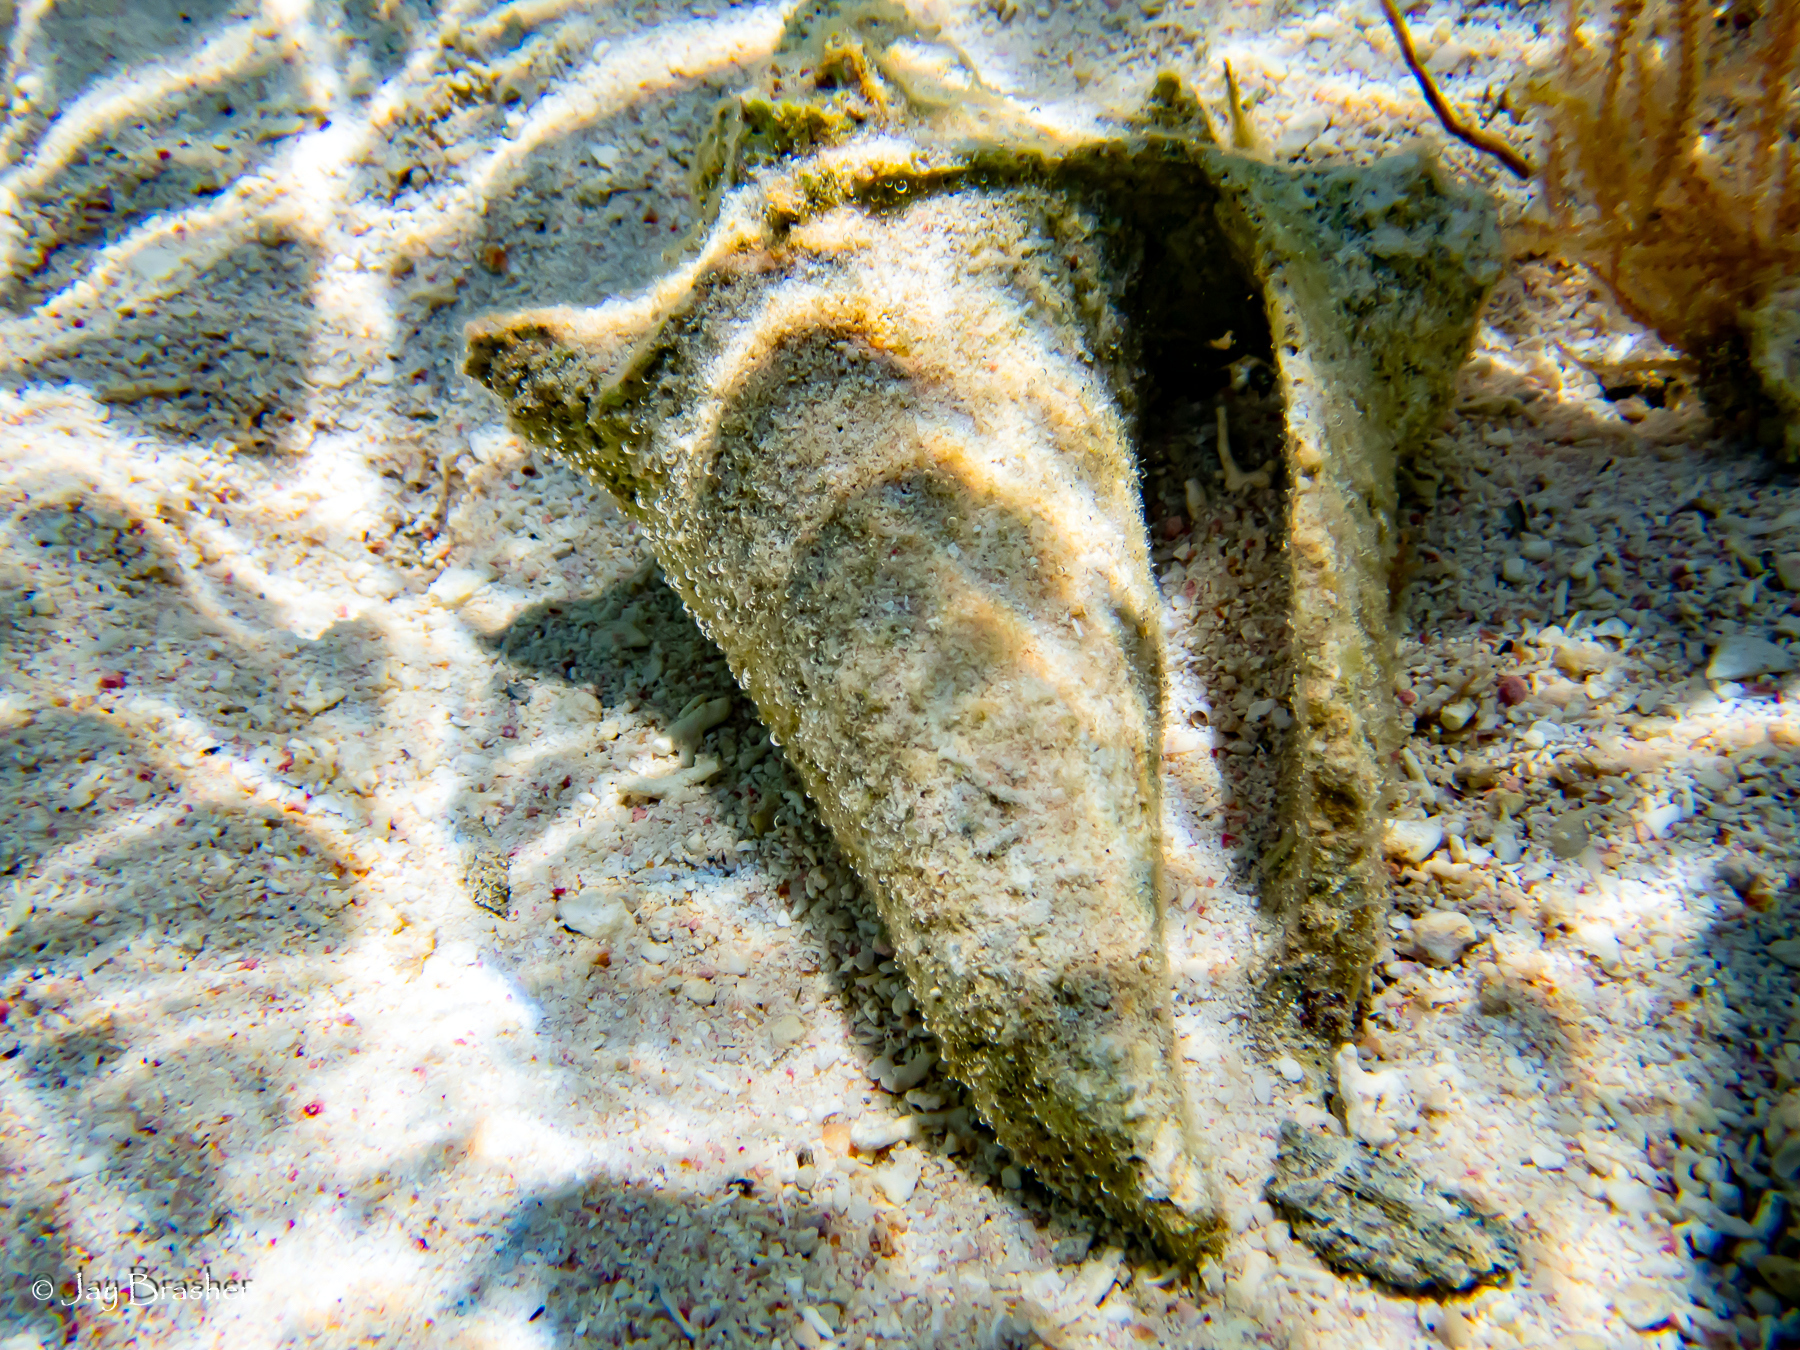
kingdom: Animalia
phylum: Mollusca
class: Gastropoda
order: Littorinimorpha
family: Strombidae
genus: Aliger
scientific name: Aliger gigas
